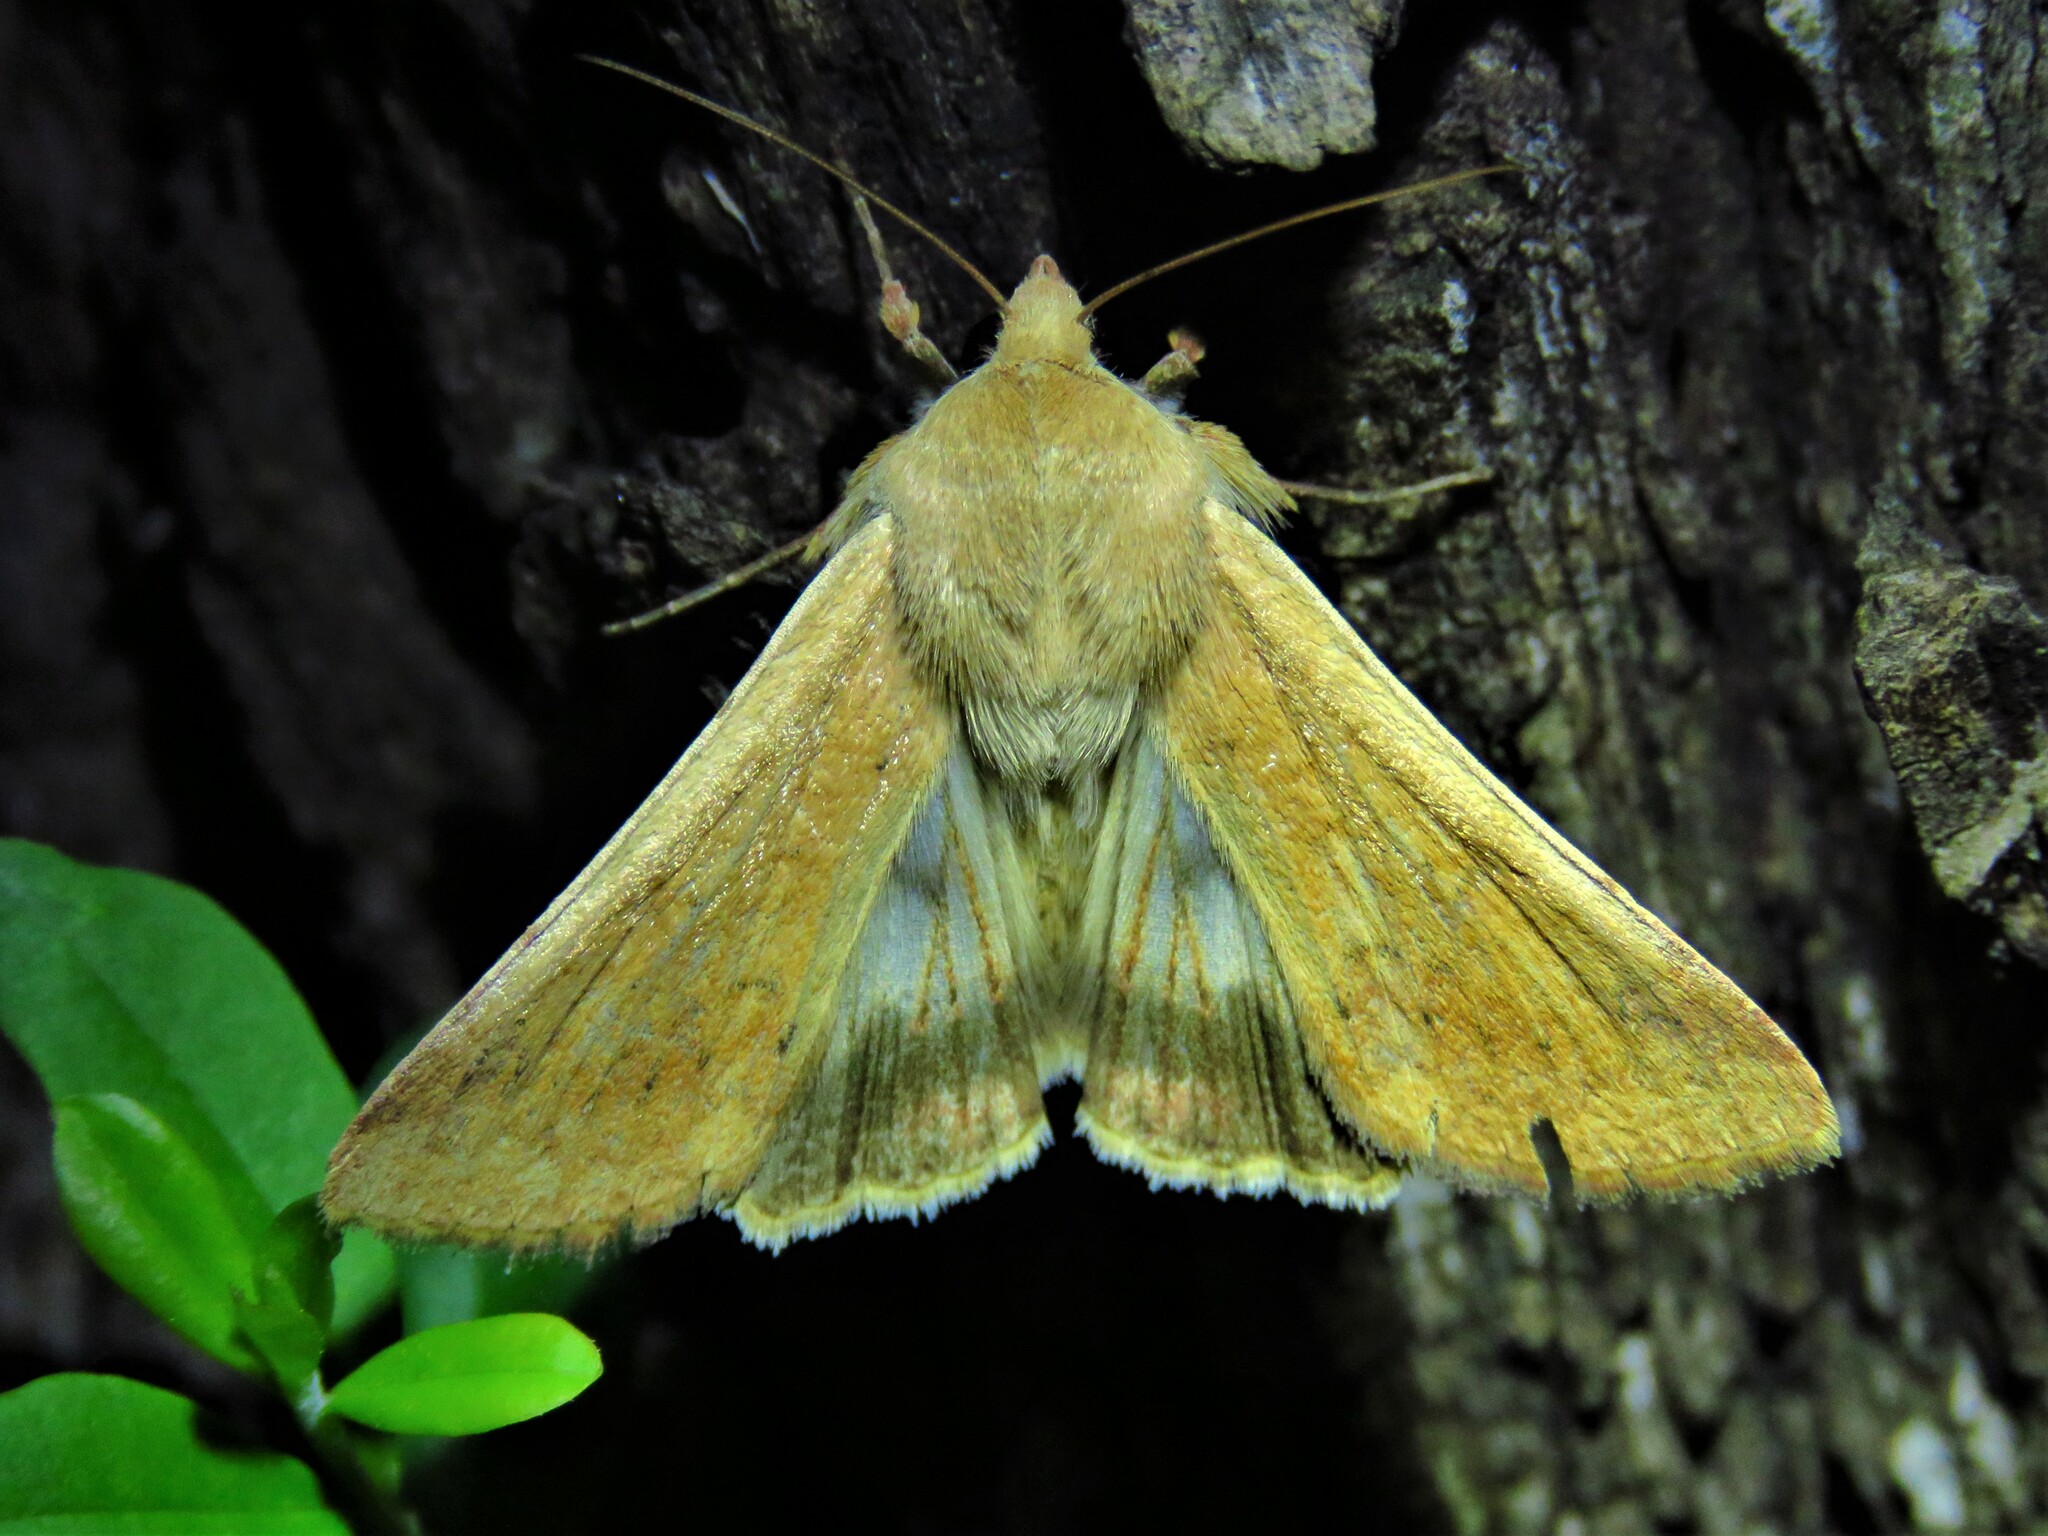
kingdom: Animalia
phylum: Arthropoda
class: Insecta
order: Lepidoptera
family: Noctuidae
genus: Helicoverpa
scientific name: Helicoverpa zea
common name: Bollworm
